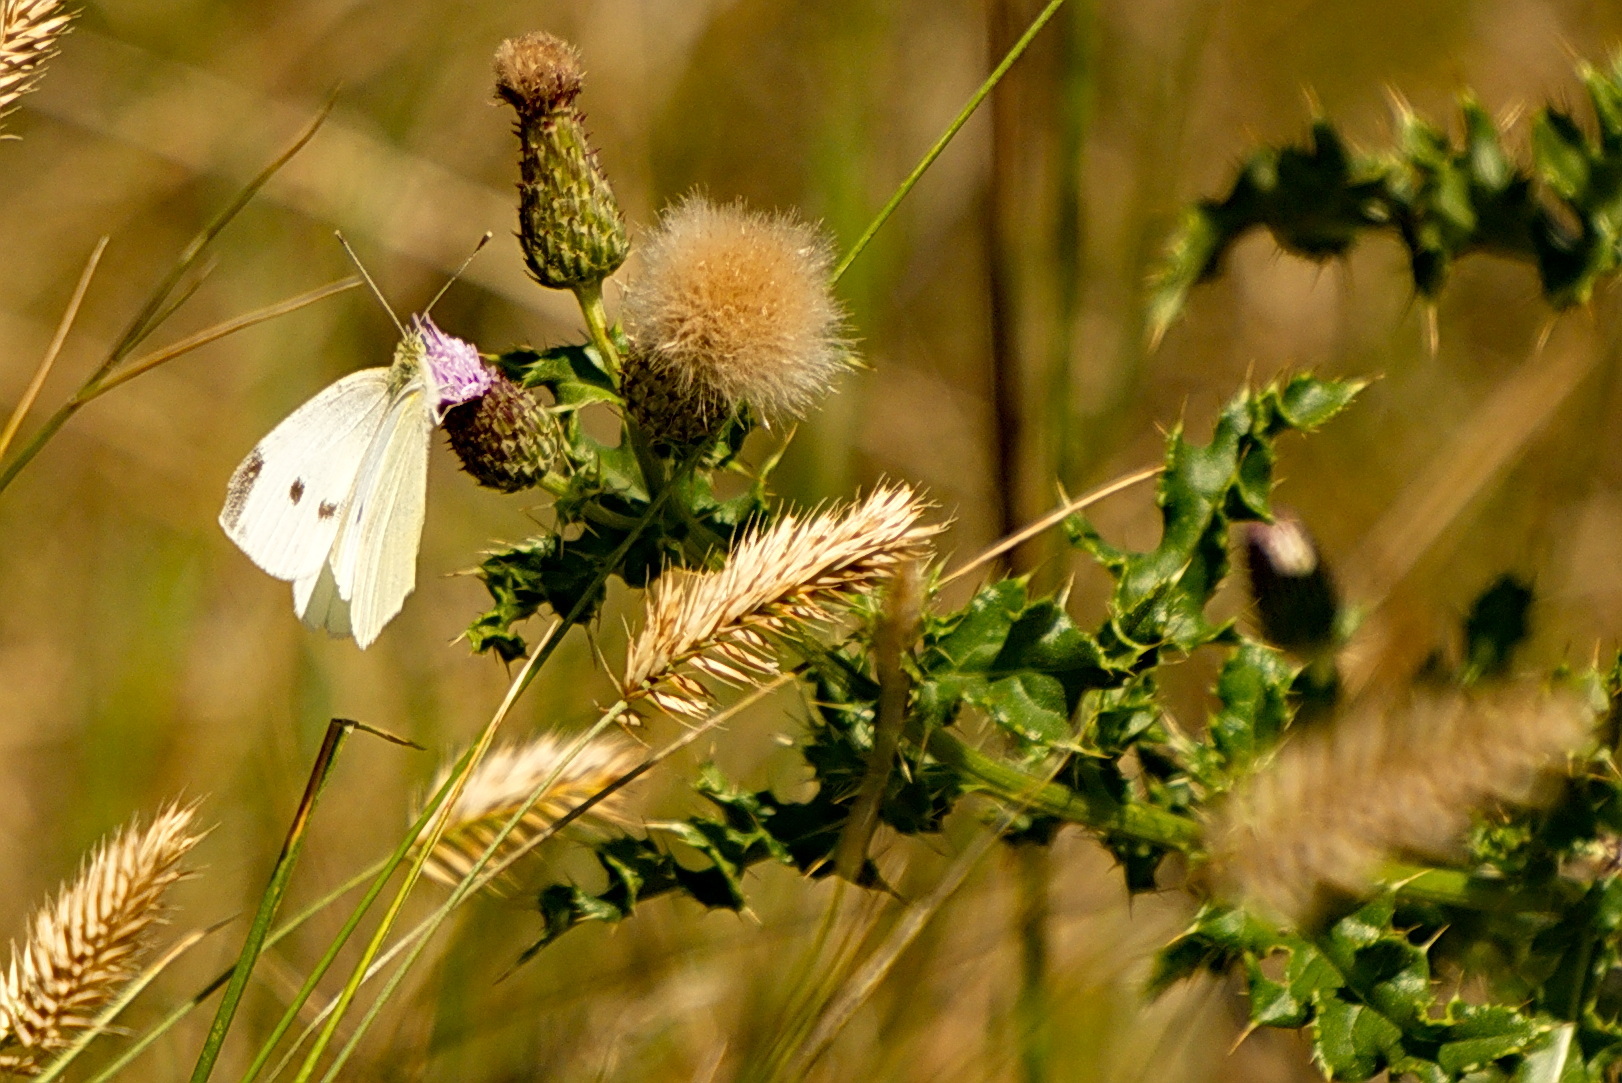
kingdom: Animalia
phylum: Arthropoda
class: Insecta
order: Lepidoptera
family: Pieridae
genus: Pieris
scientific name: Pieris rapae
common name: Small white
